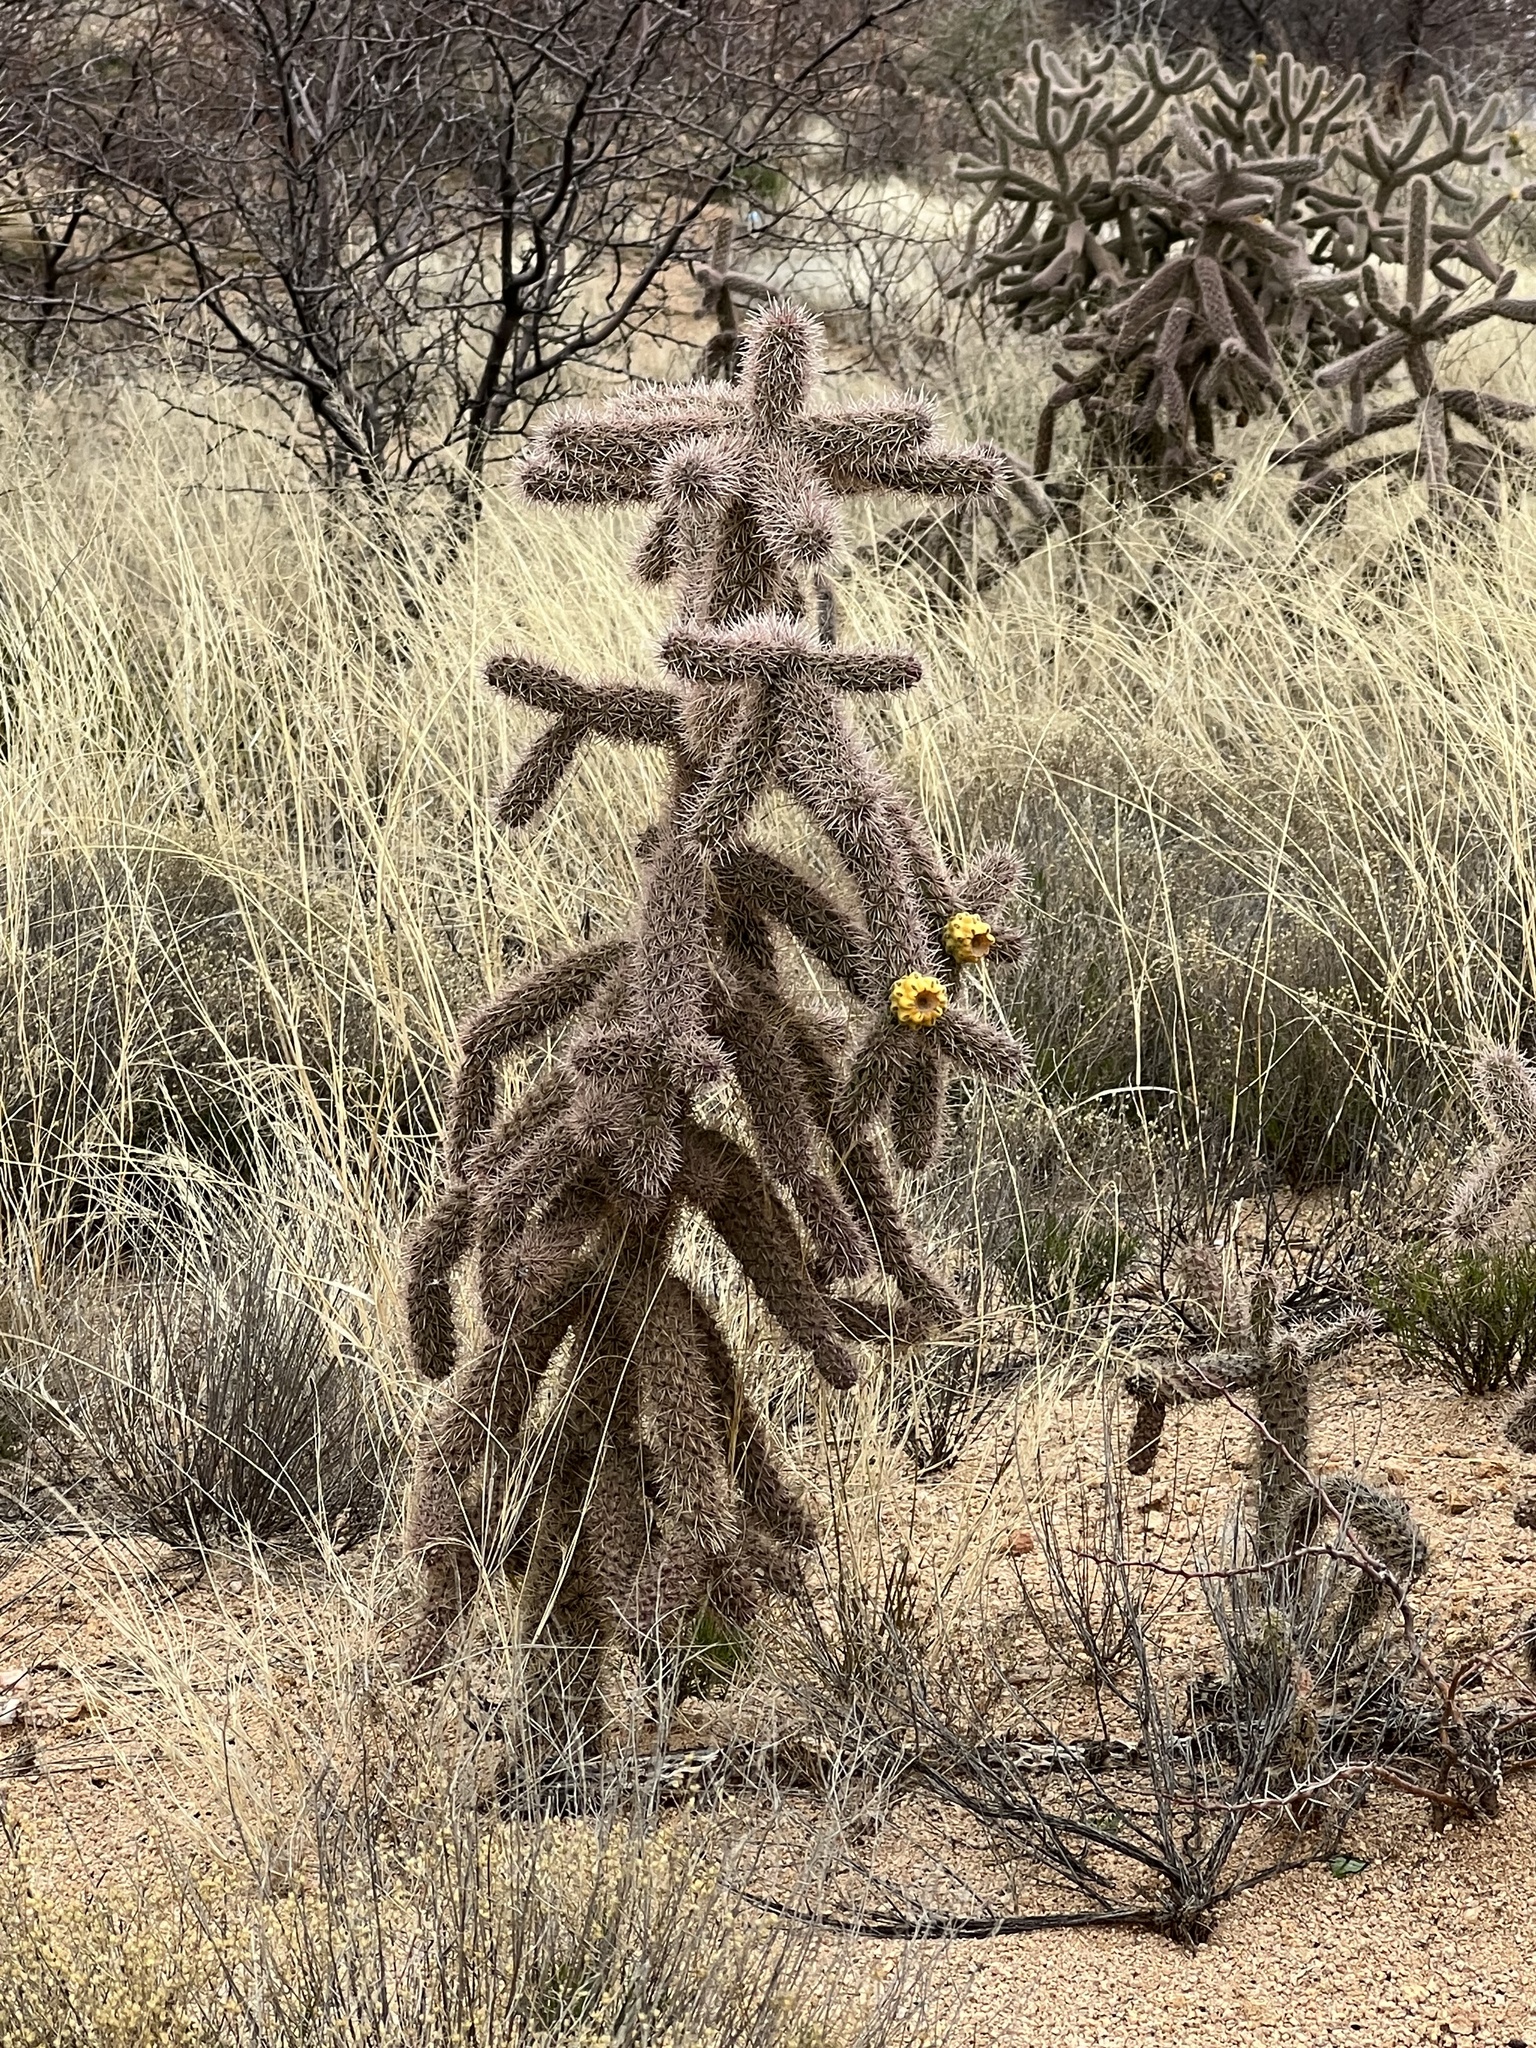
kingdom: Plantae
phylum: Tracheophyta
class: Magnoliopsida
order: Caryophyllales
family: Cactaceae
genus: Cylindropuntia
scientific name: Cylindropuntia imbricata
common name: Candelabrum cactus
